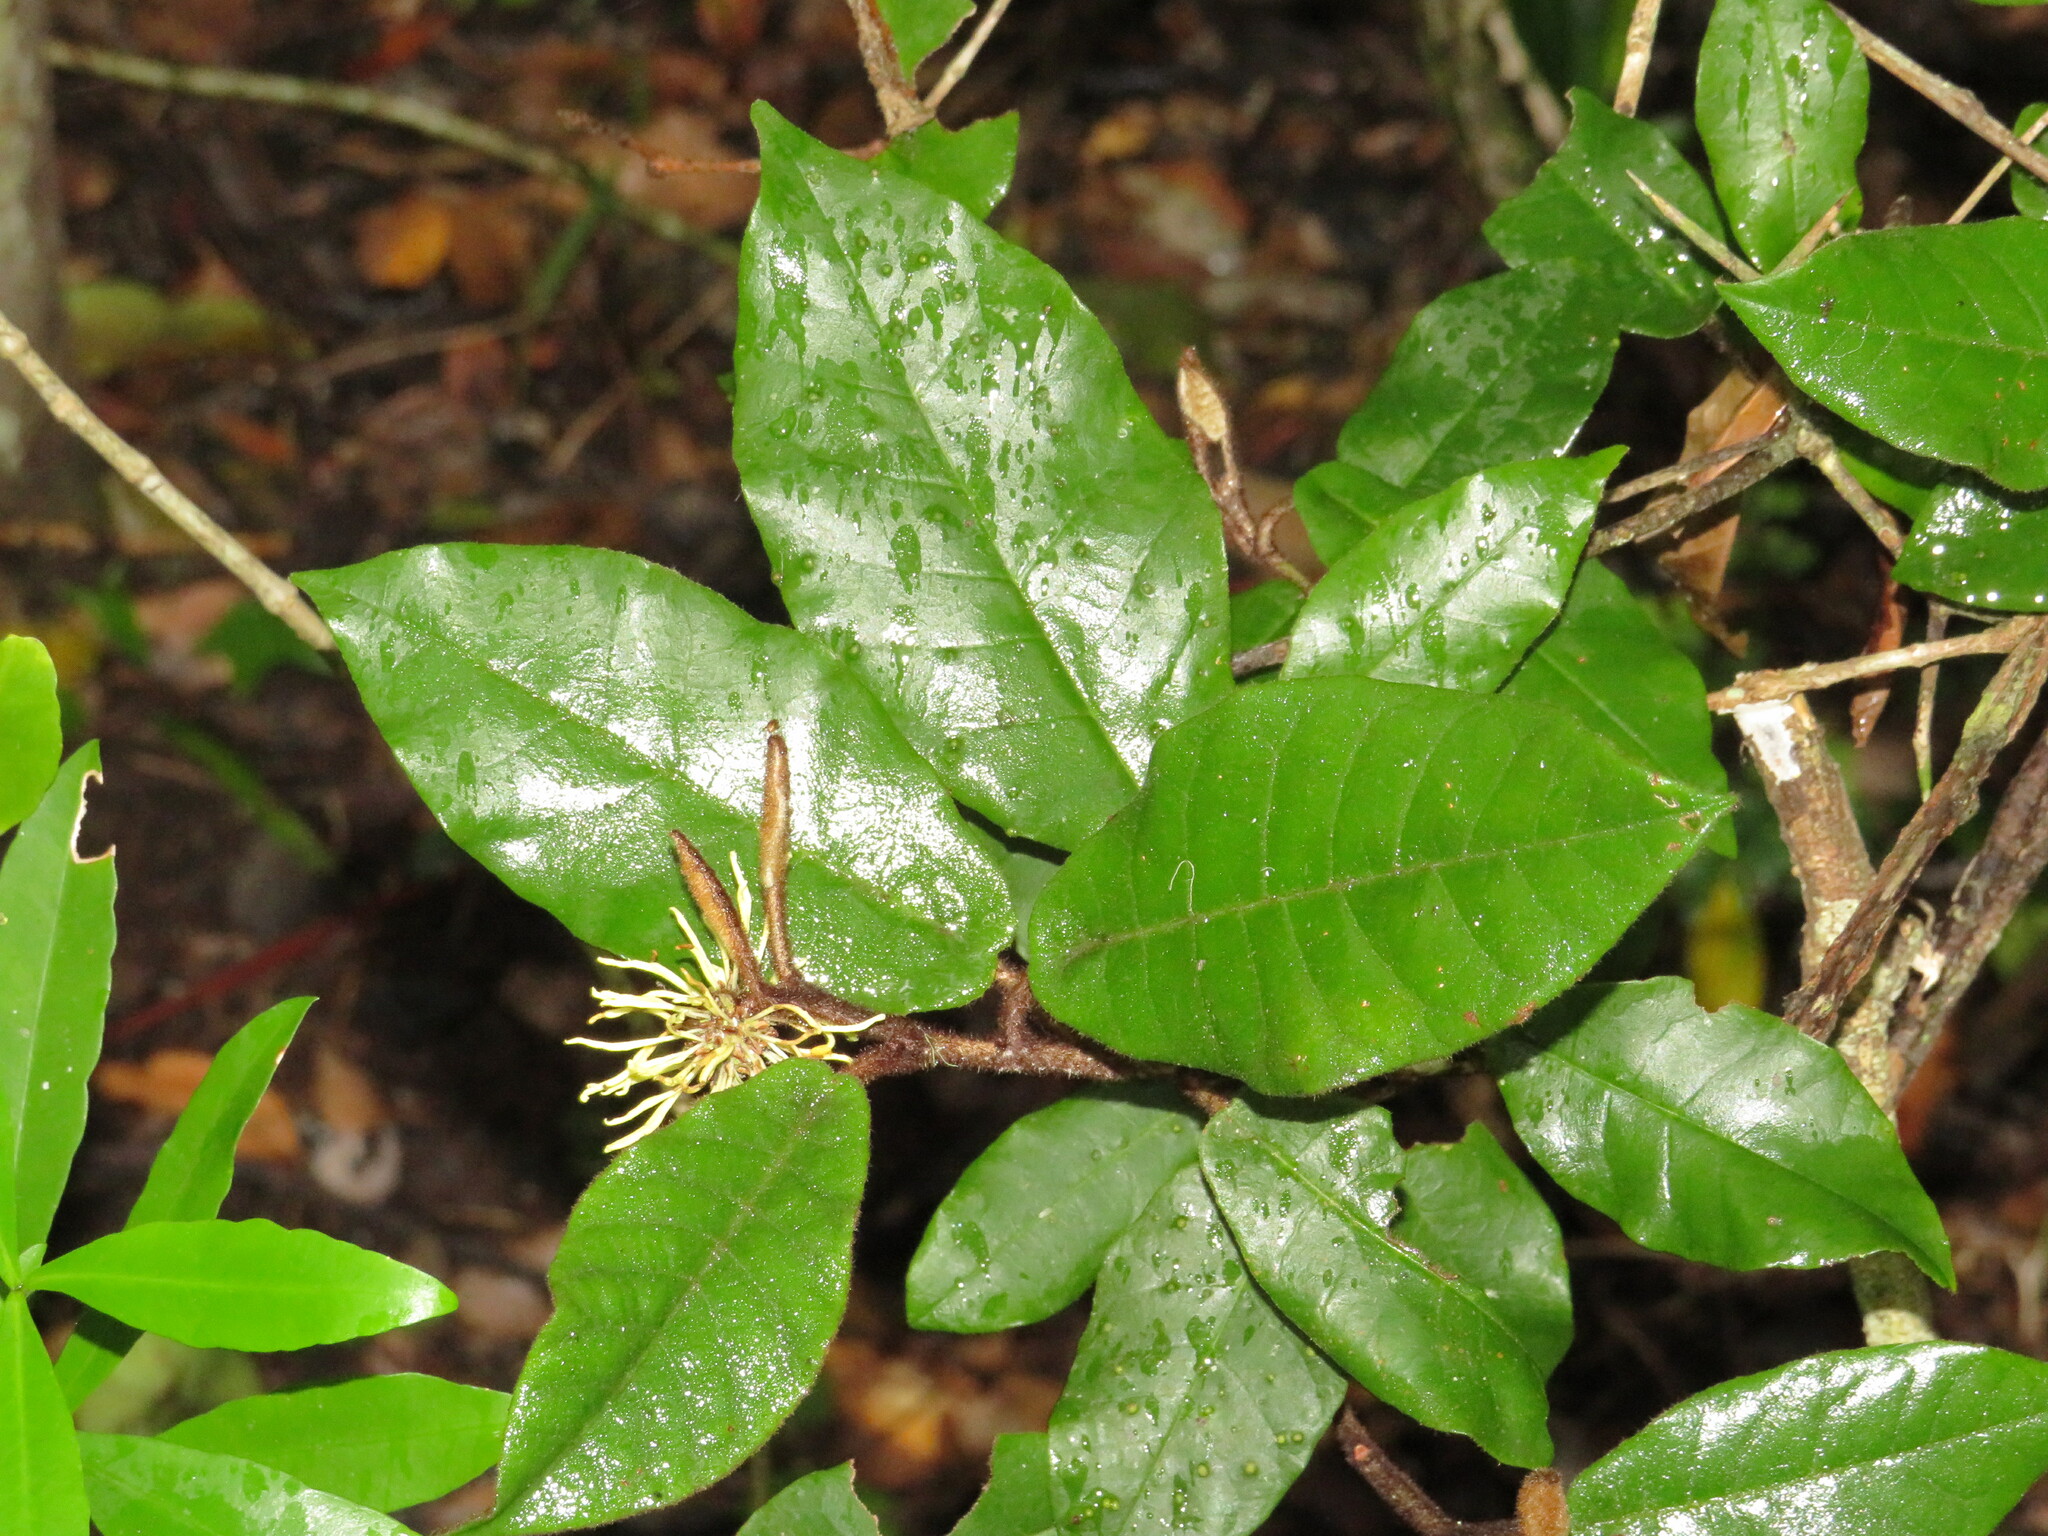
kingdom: Plantae
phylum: Tracheophyta
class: Magnoliopsida
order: Saxifragales
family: Hamamelidaceae
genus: Trichocladus
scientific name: Trichocladus crinitus
